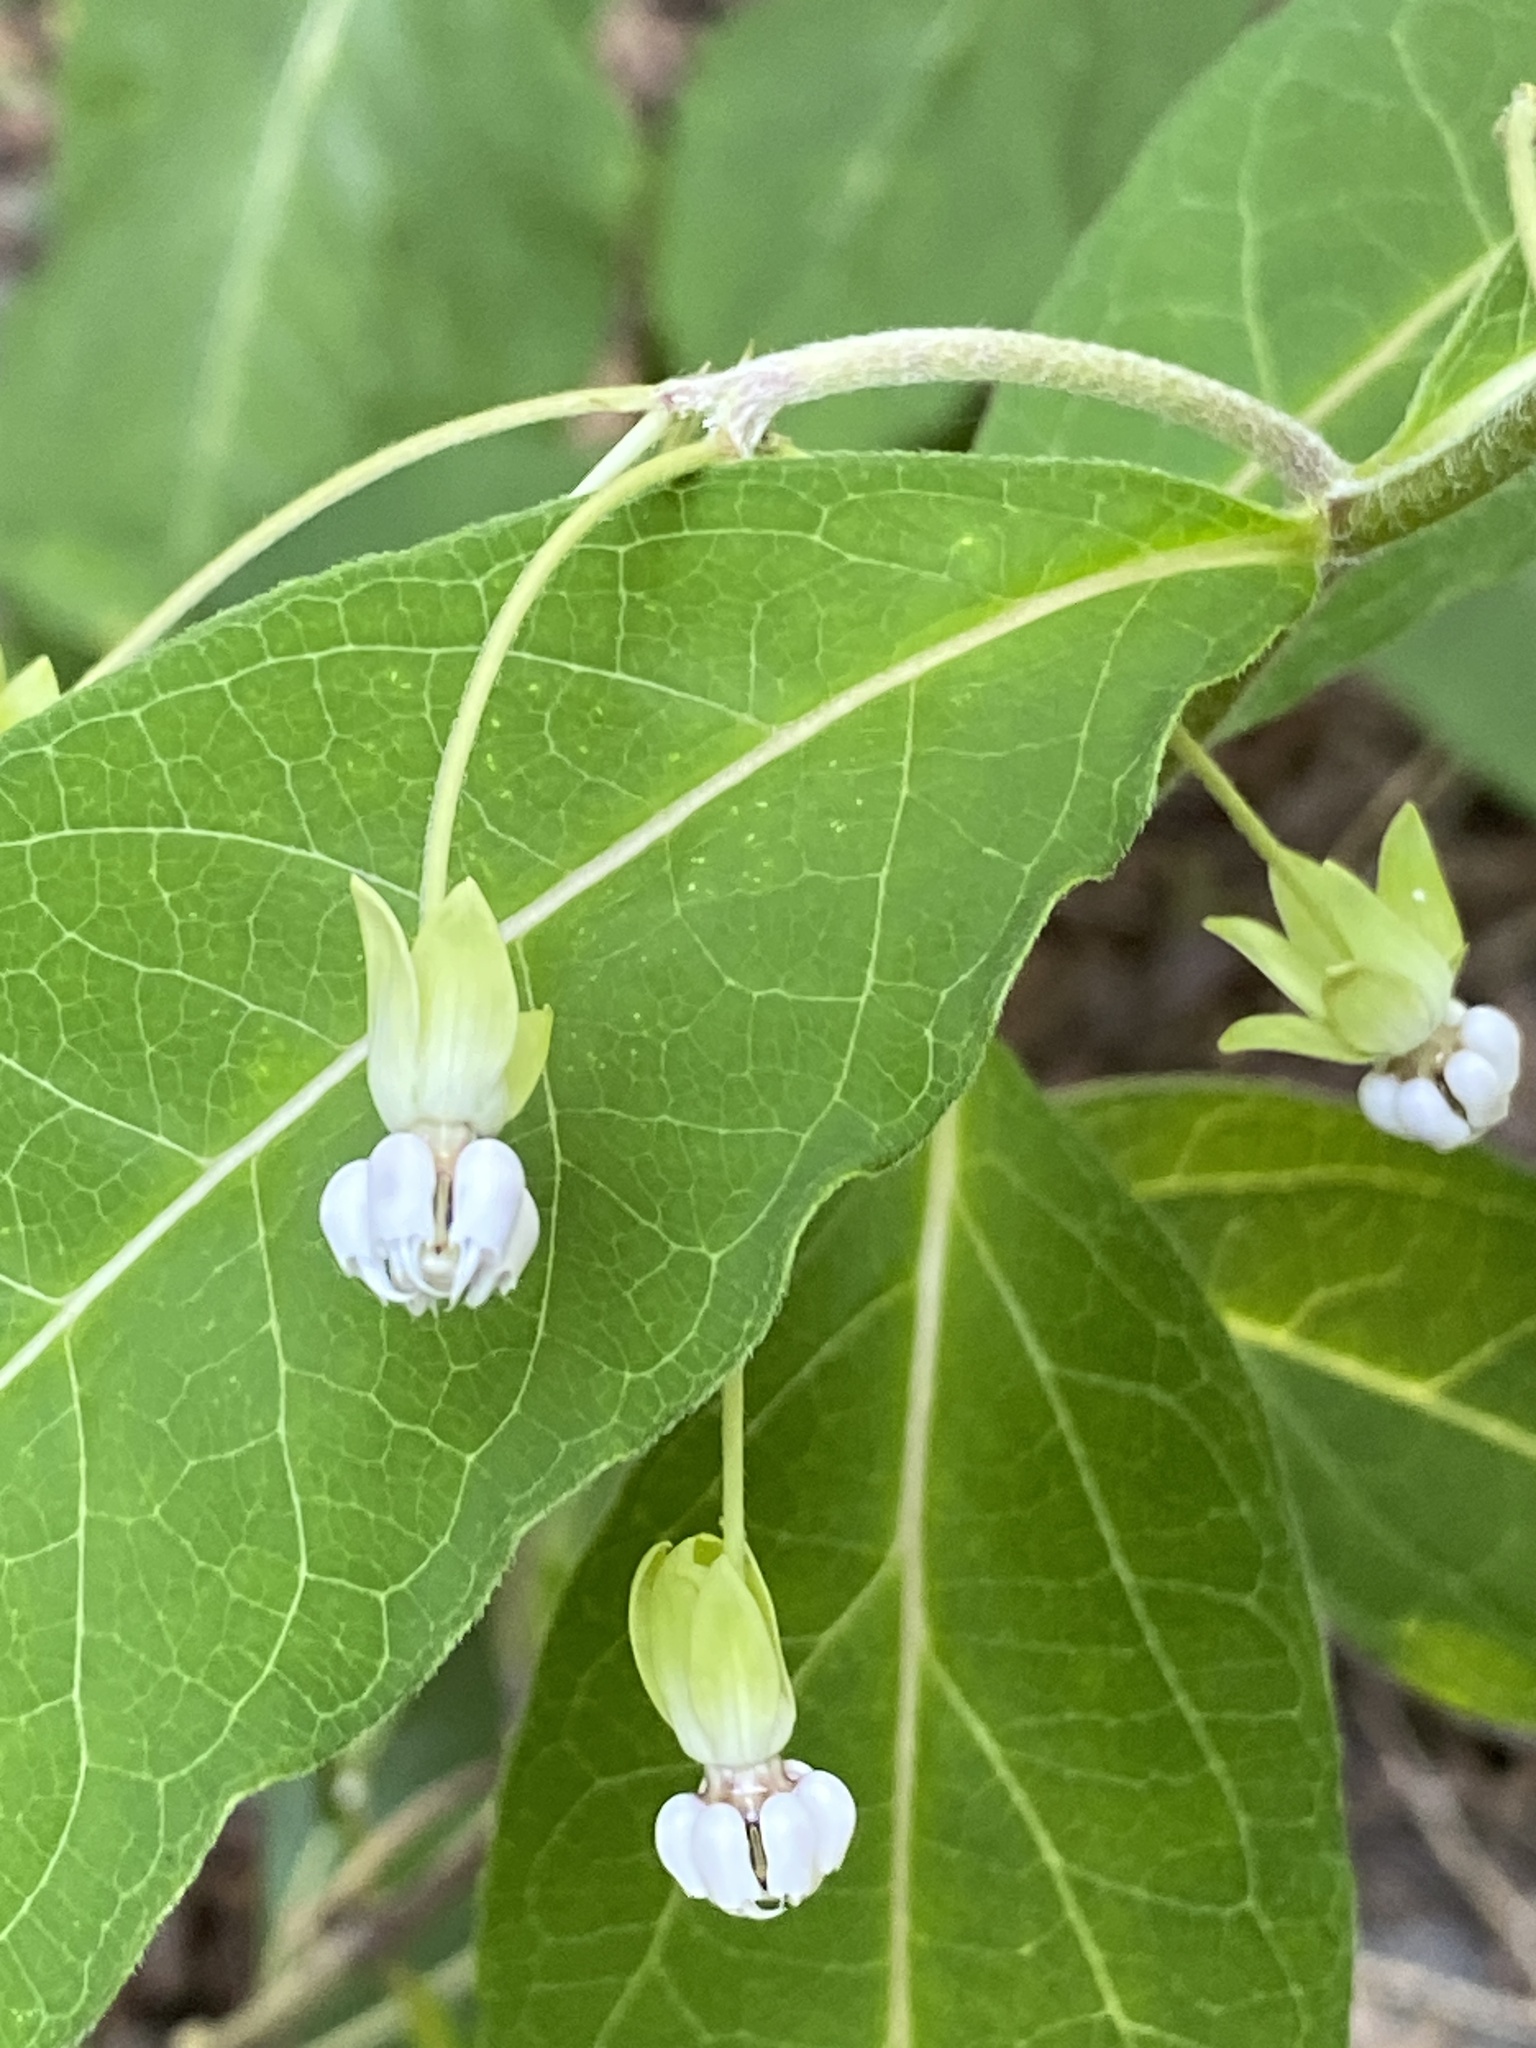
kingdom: Plantae
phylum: Tracheophyta
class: Magnoliopsida
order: Gentianales
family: Apocynaceae
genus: Asclepias
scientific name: Asclepias exaltata
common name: Poke milkweed
